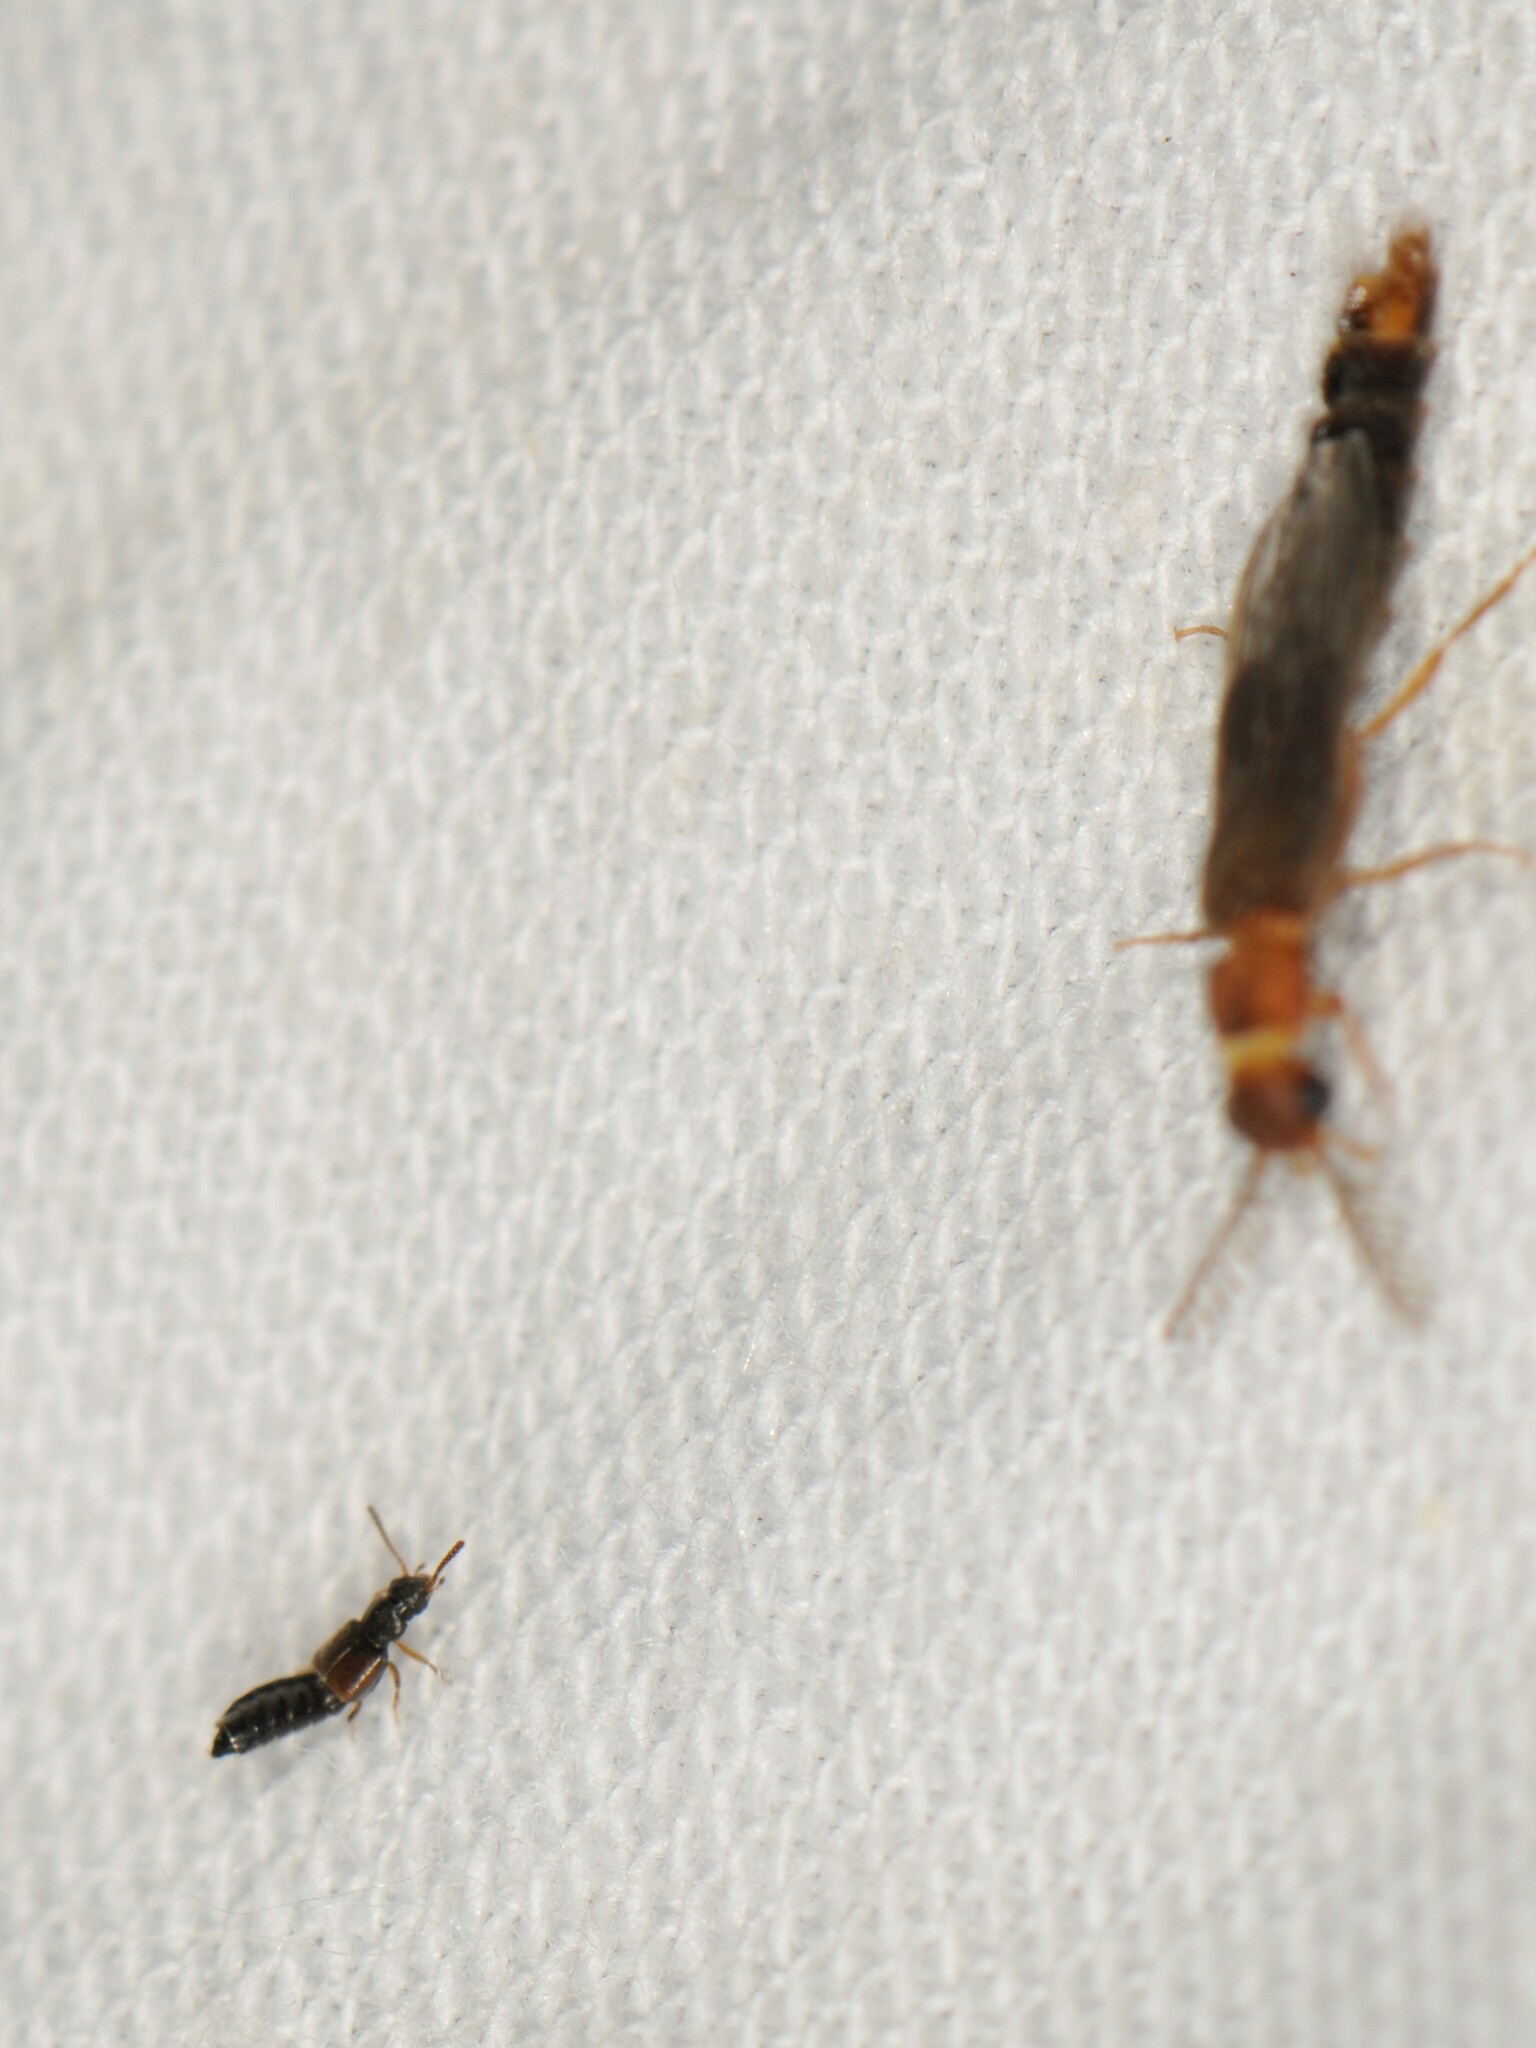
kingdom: Animalia
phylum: Arthropoda
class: Insecta
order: Coleoptera
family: Phengodidae
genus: Distremocephalus
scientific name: Distremocephalus opaculus
